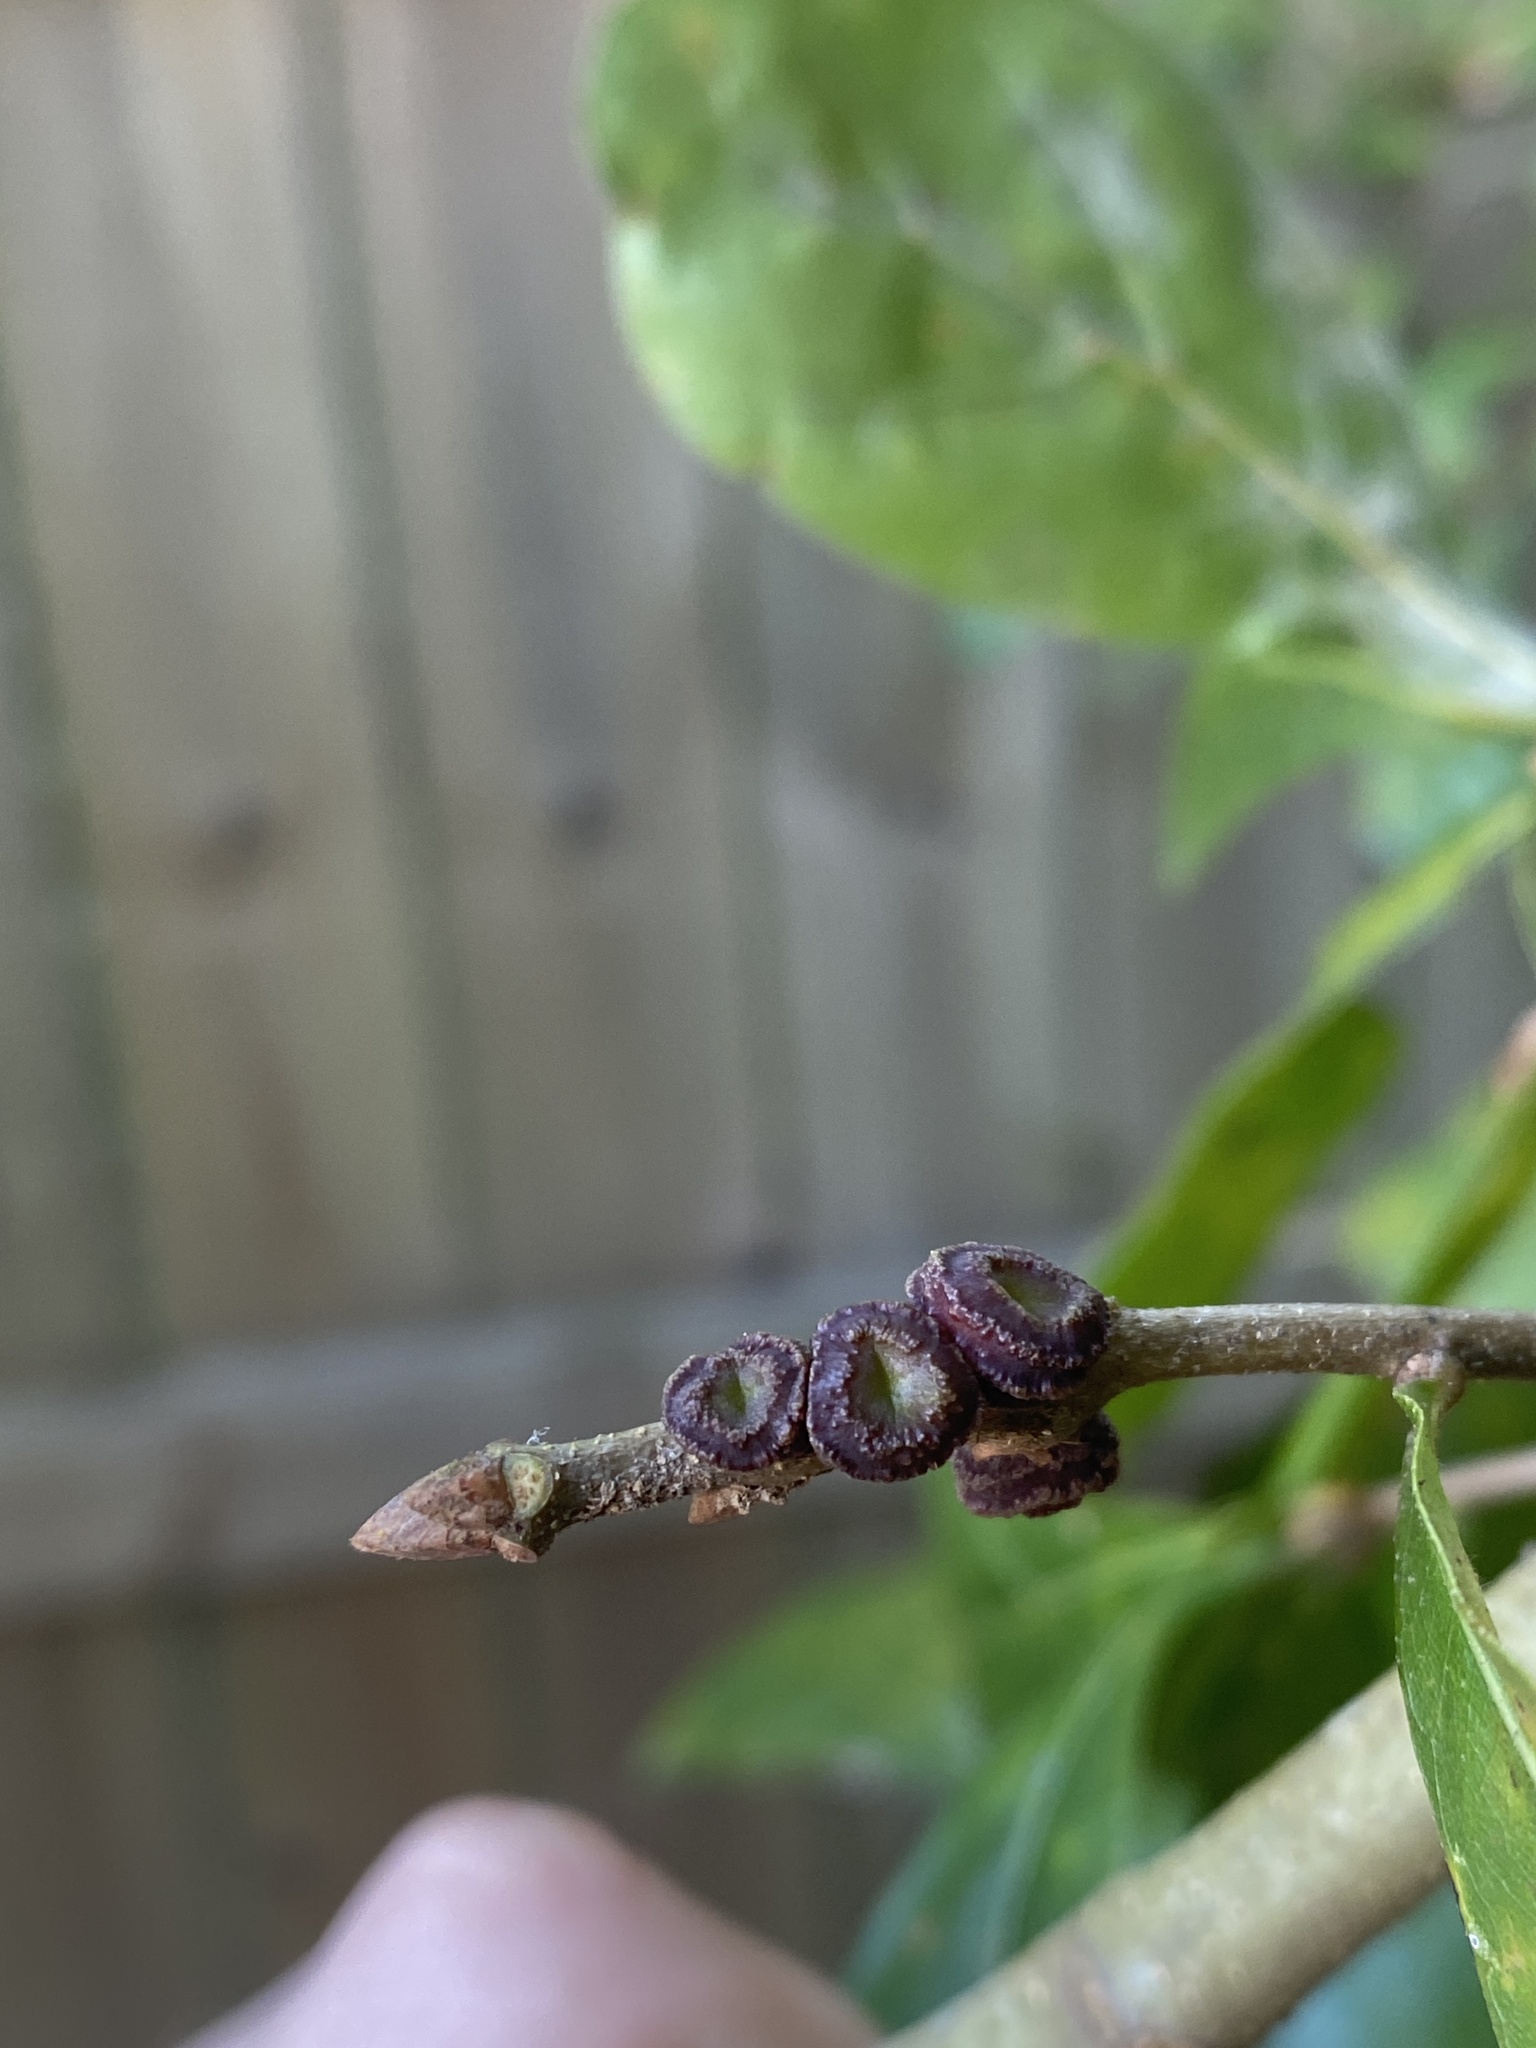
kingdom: Animalia
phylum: Arthropoda
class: Insecta
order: Hymenoptera
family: Cynipidae
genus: Kokkocynips
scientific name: Kokkocynips difficilis
